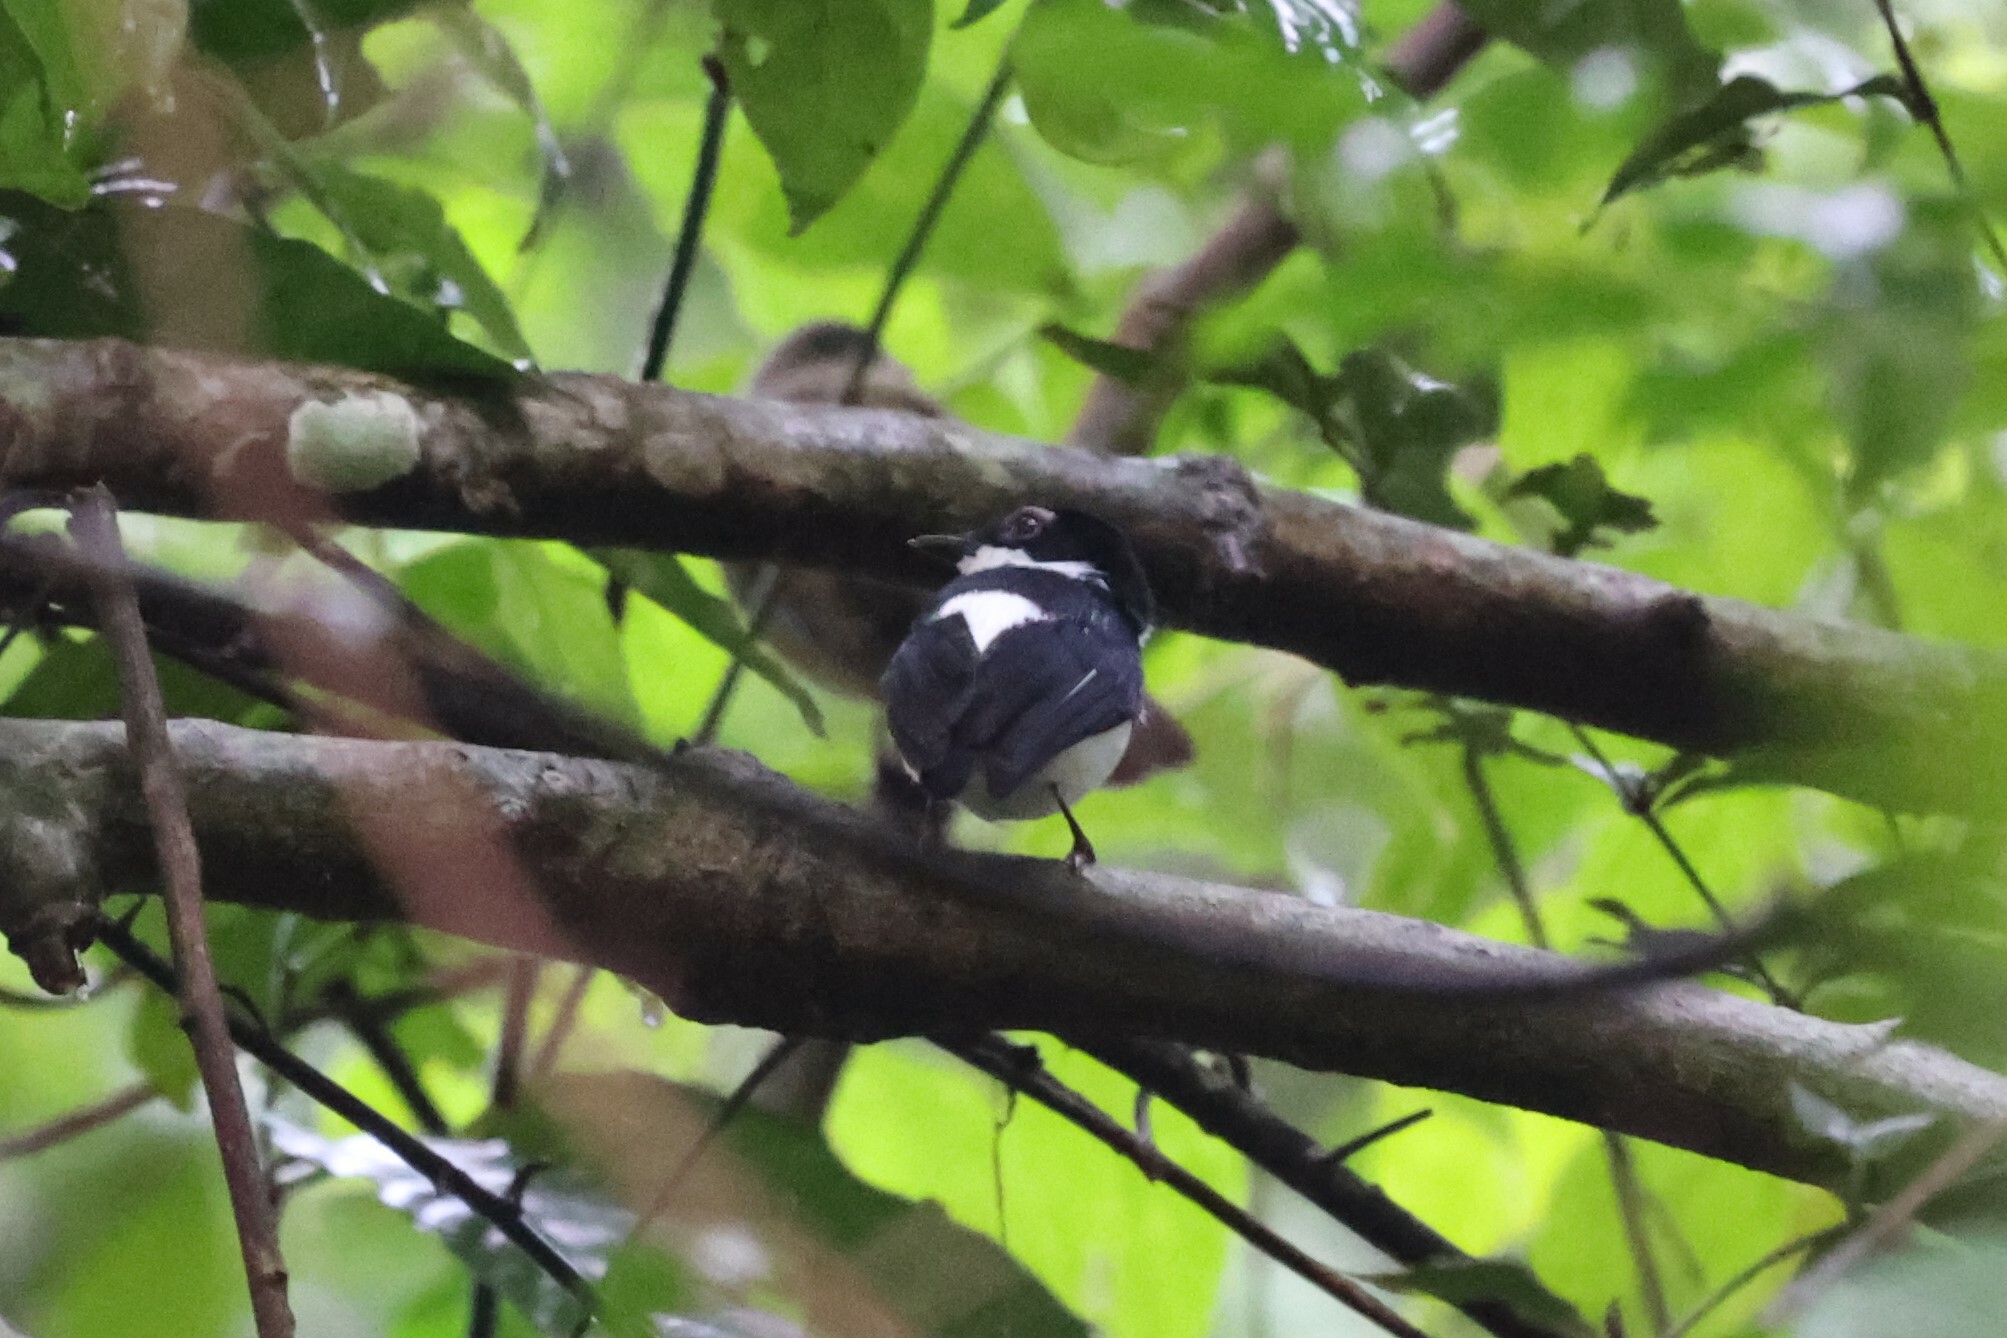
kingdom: Animalia
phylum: Chordata
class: Aves
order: Passeriformes
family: Platysteiridae
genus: Platysteira
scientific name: Platysteira castanea
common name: Chestnut wattle-eye
